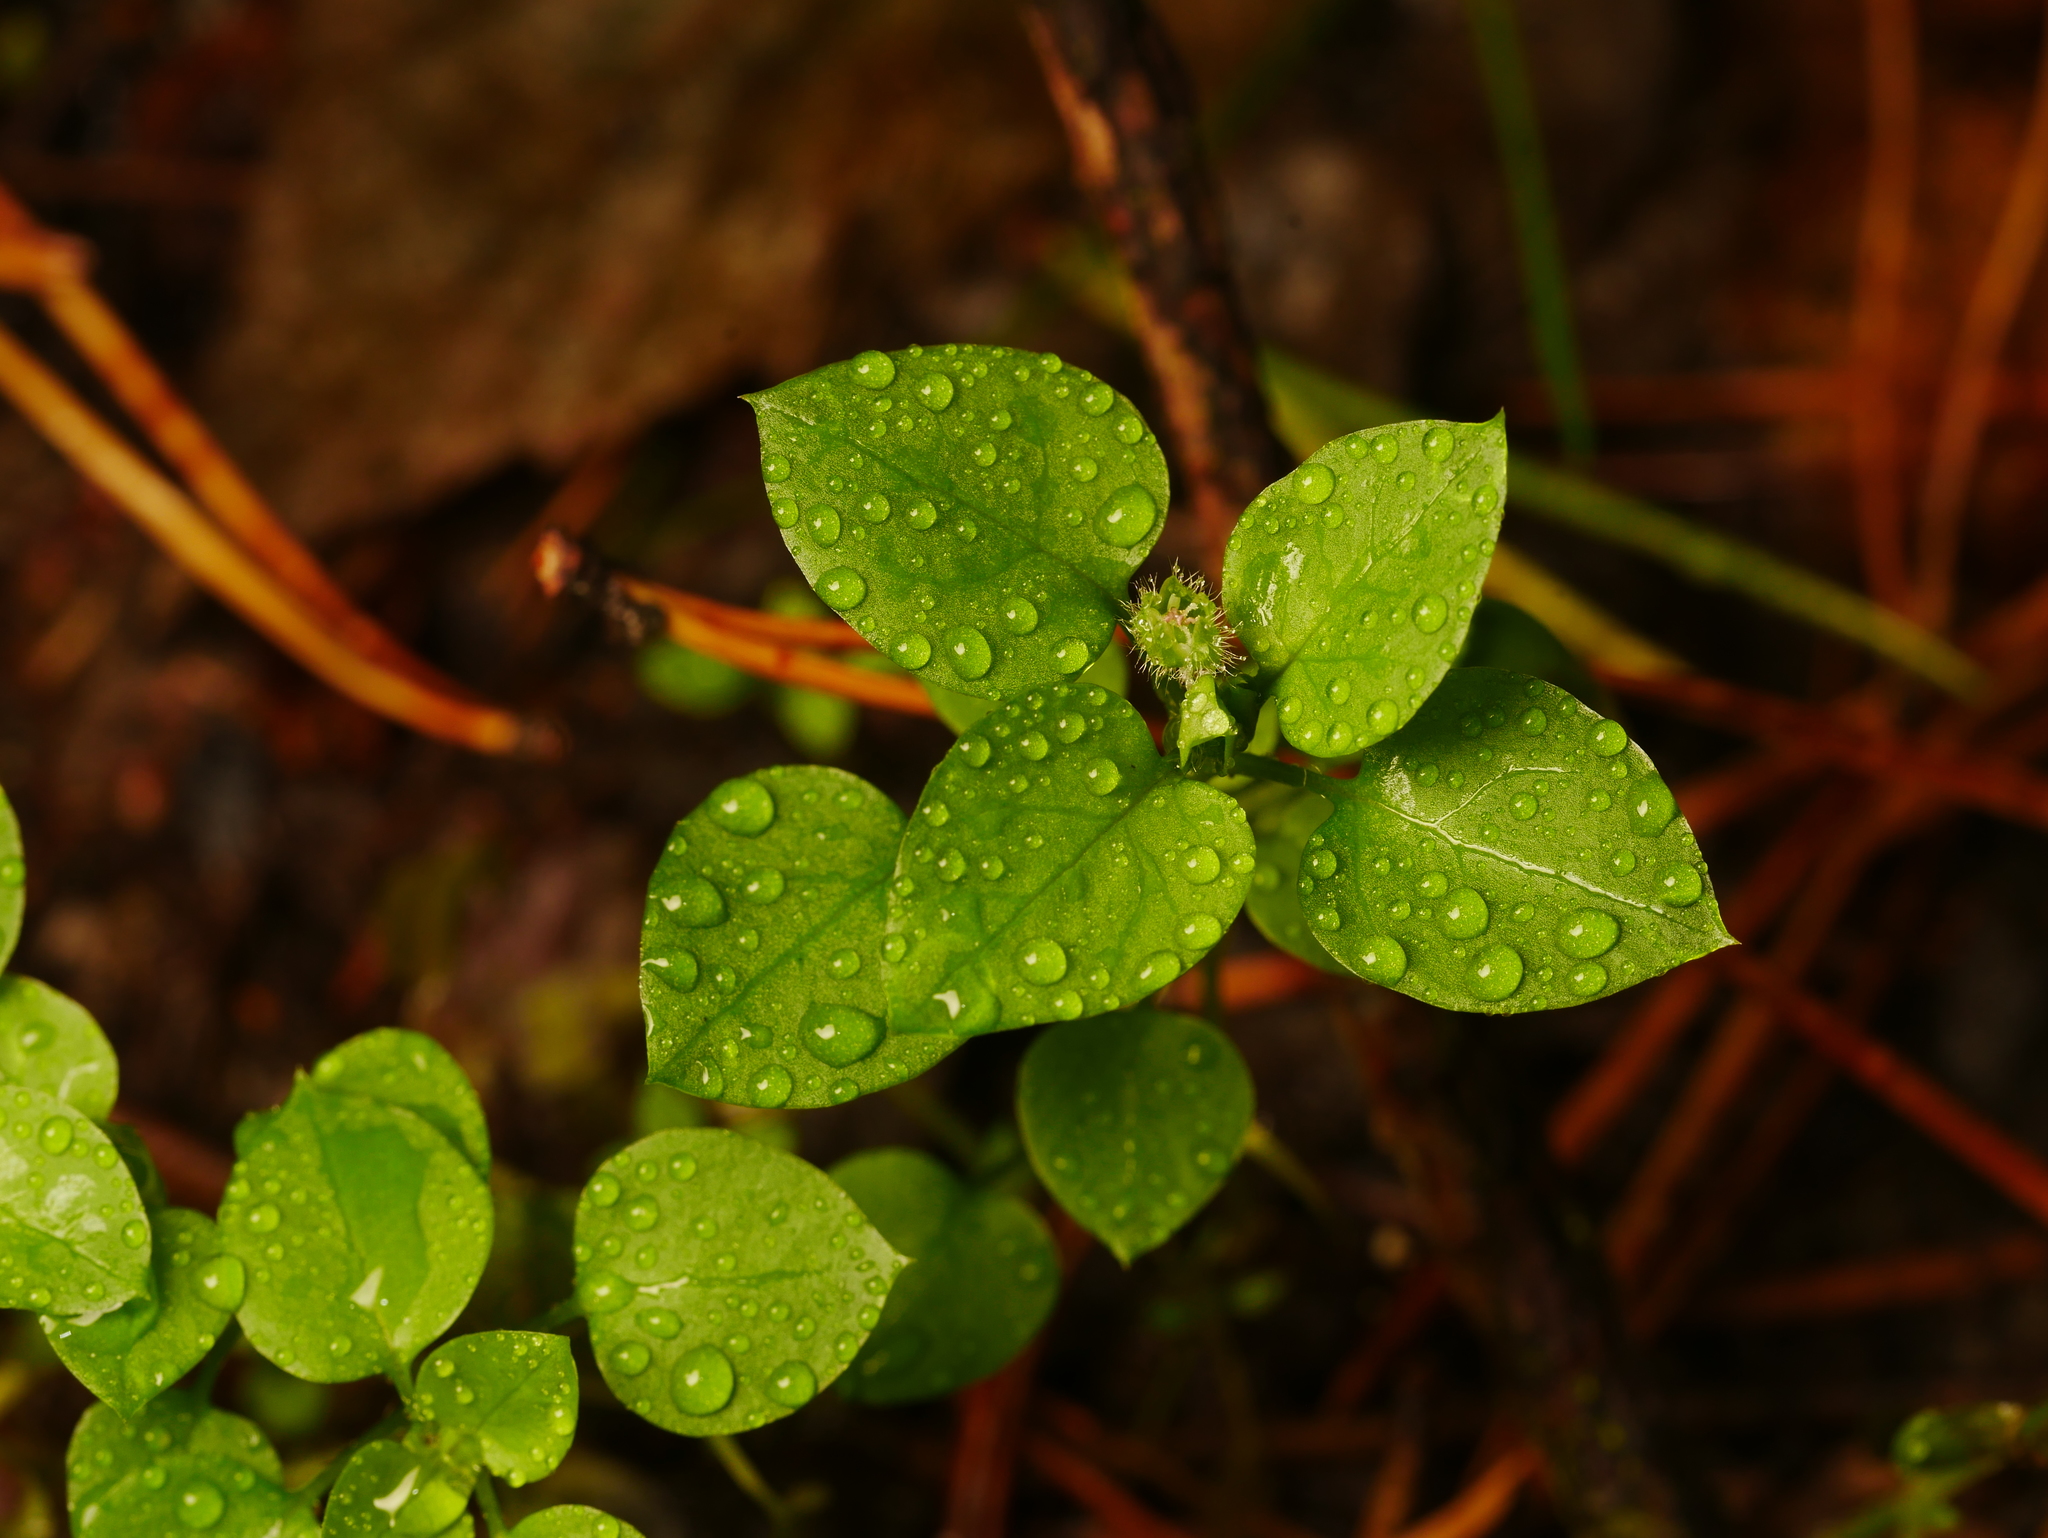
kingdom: Plantae
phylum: Tracheophyta
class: Magnoliopsida
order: Caryophyllales
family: Caryophyllaceae
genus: Stellaria
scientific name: Stellaria media
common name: Common chickweed
